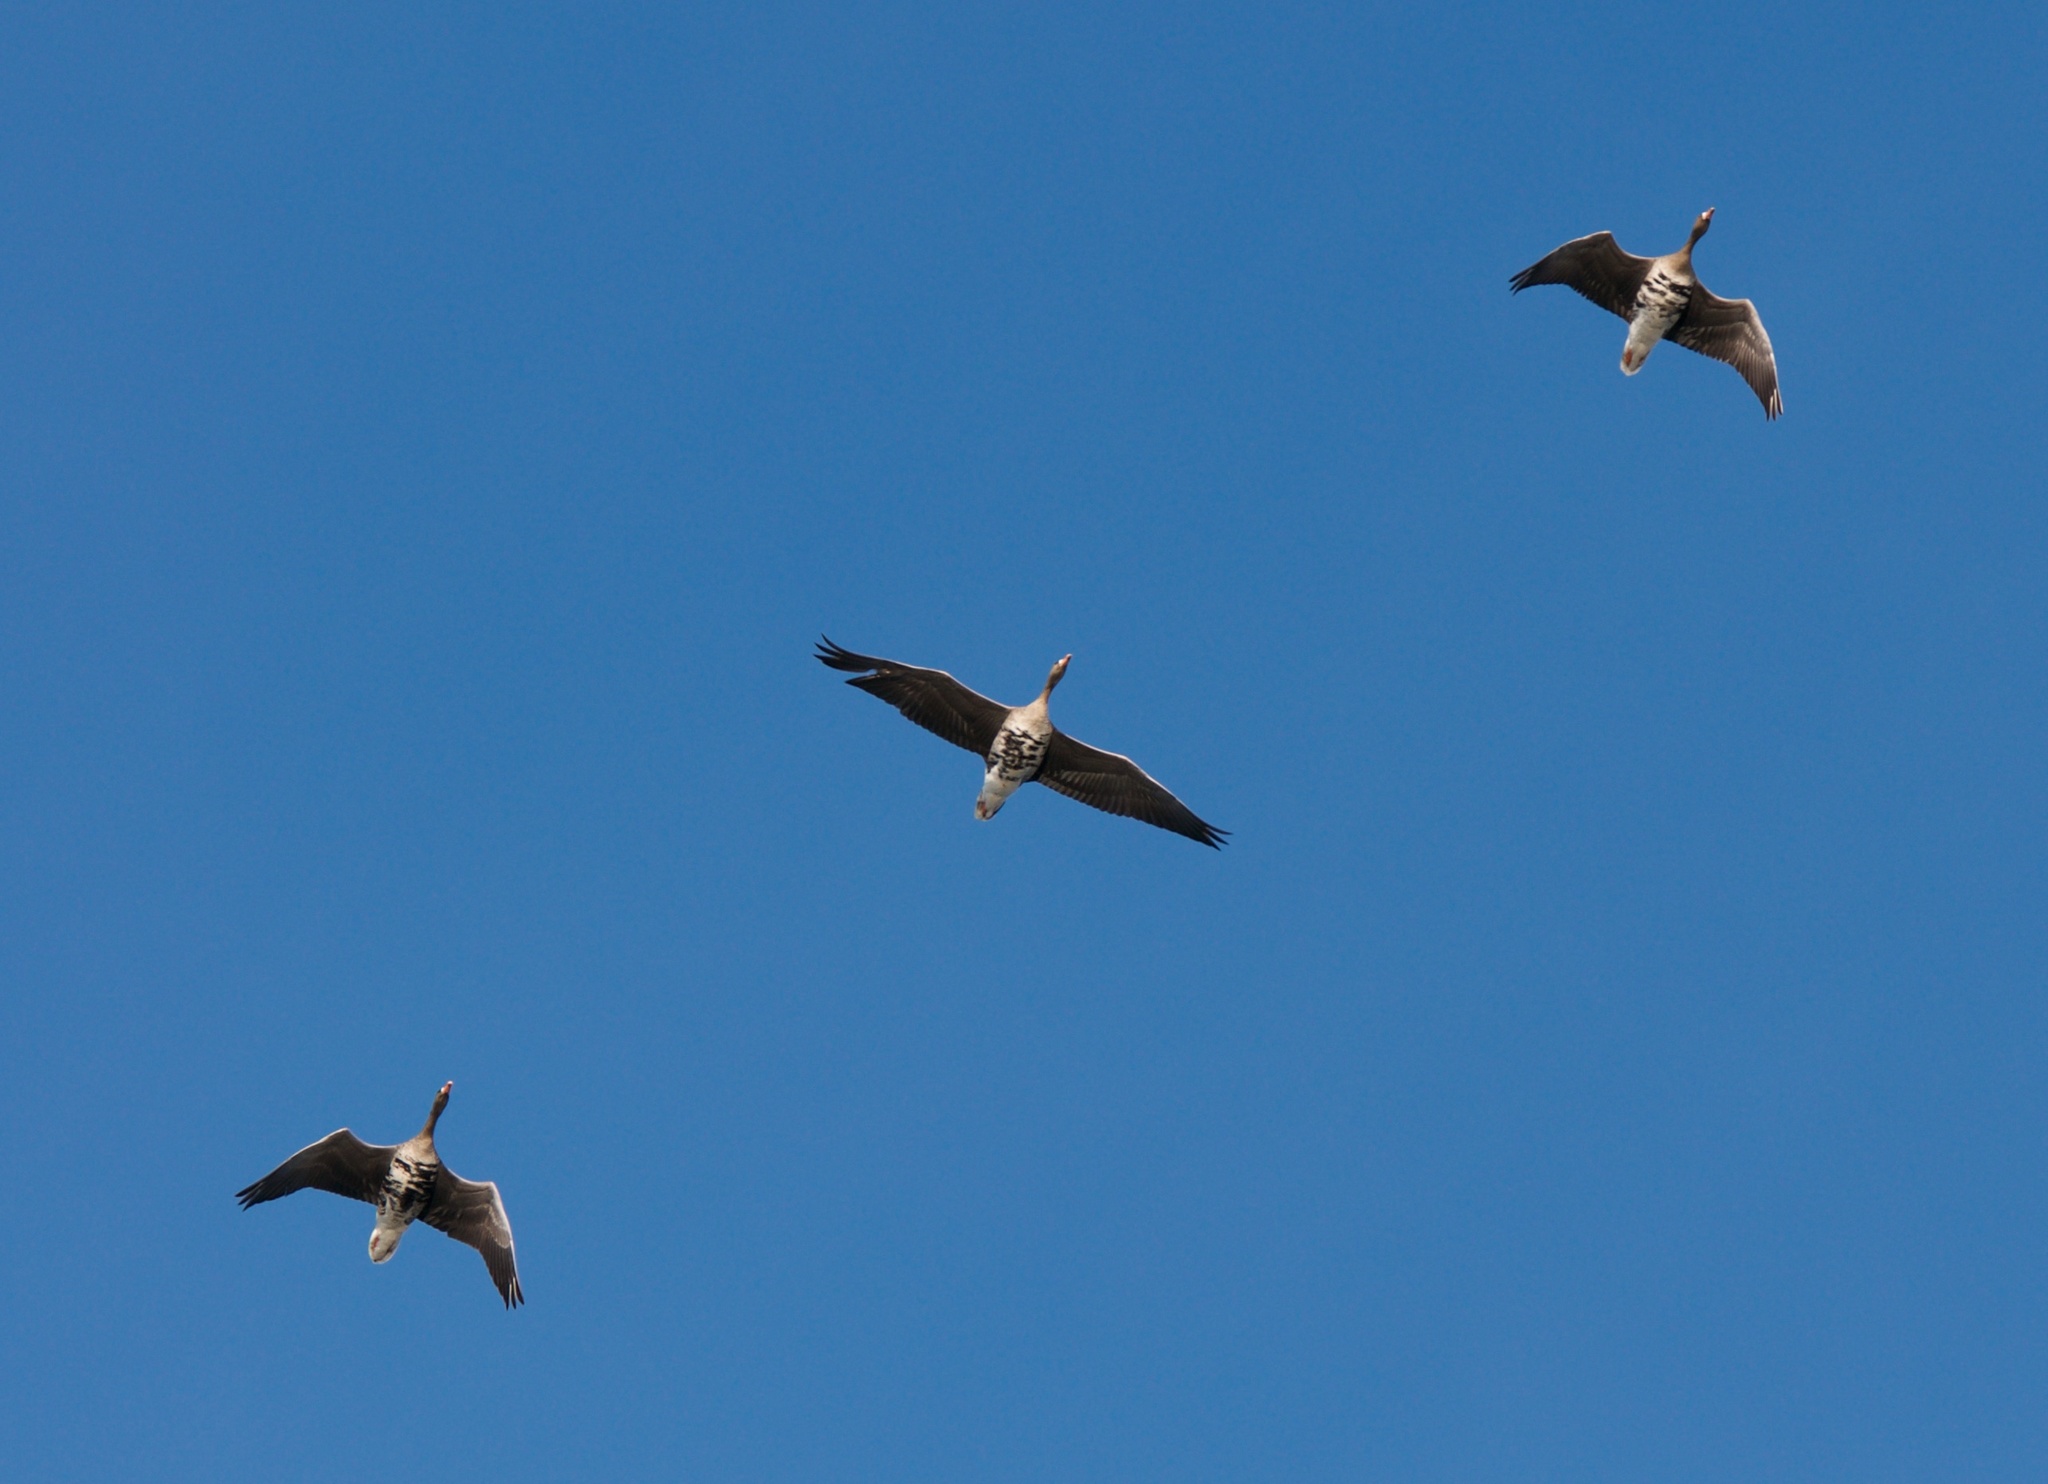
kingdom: Animalia
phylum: Chordata
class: Aves
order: Anseriformes
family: Anatidae
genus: Anser
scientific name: Anser albifrons
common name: Greater white-fronted goose
